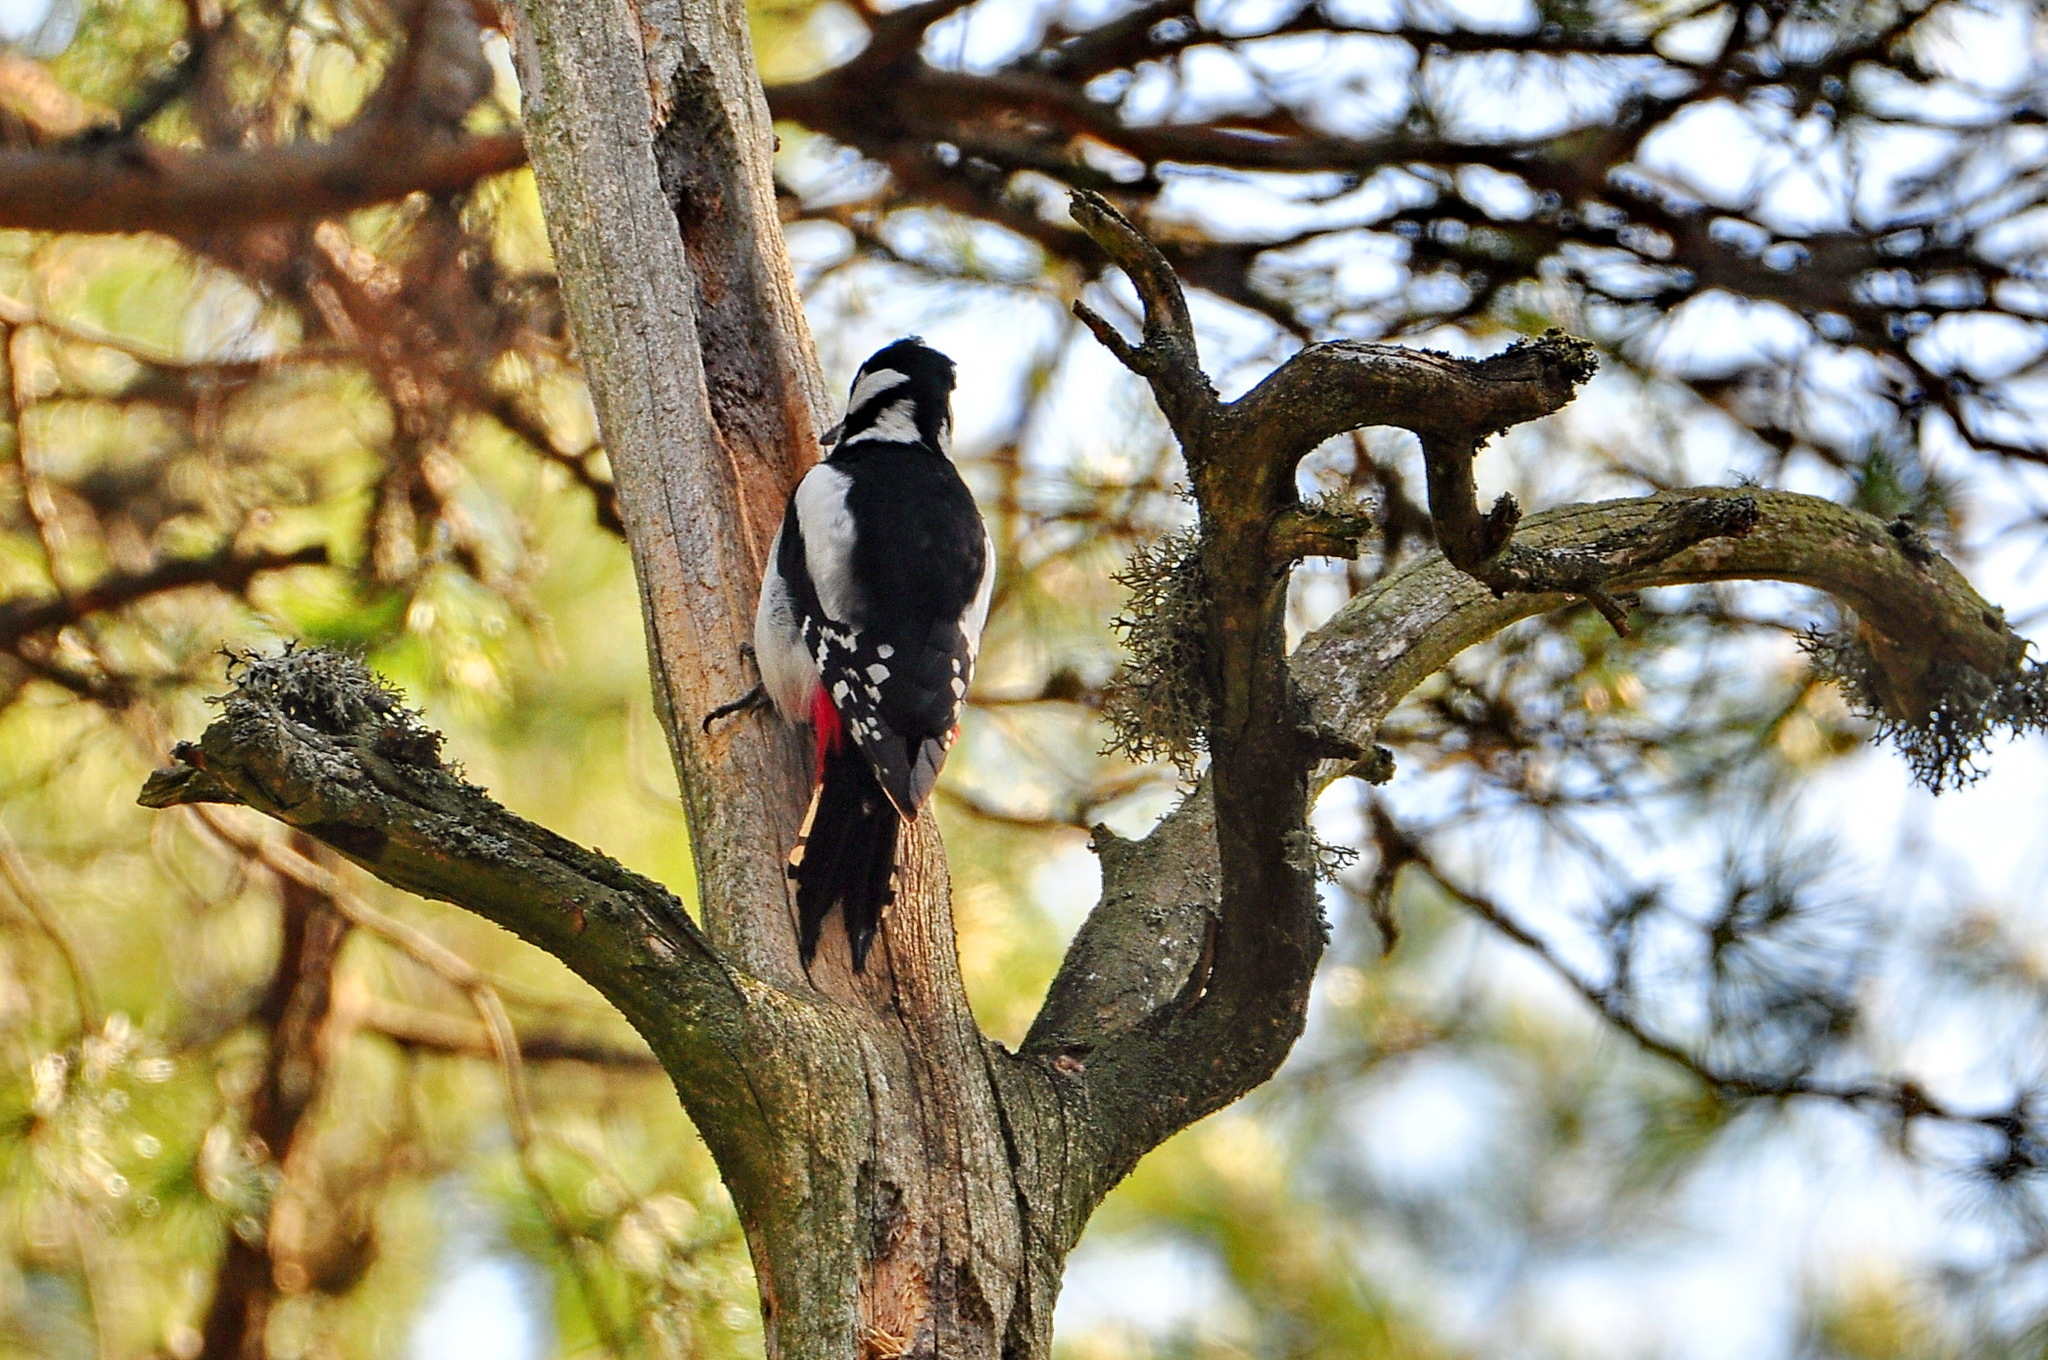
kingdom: Animalia
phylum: Chordata
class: Aves
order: Piciformes
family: Picidae
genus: Dendrocopos
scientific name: Dendrocopos major
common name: Great spotted woodpecker
